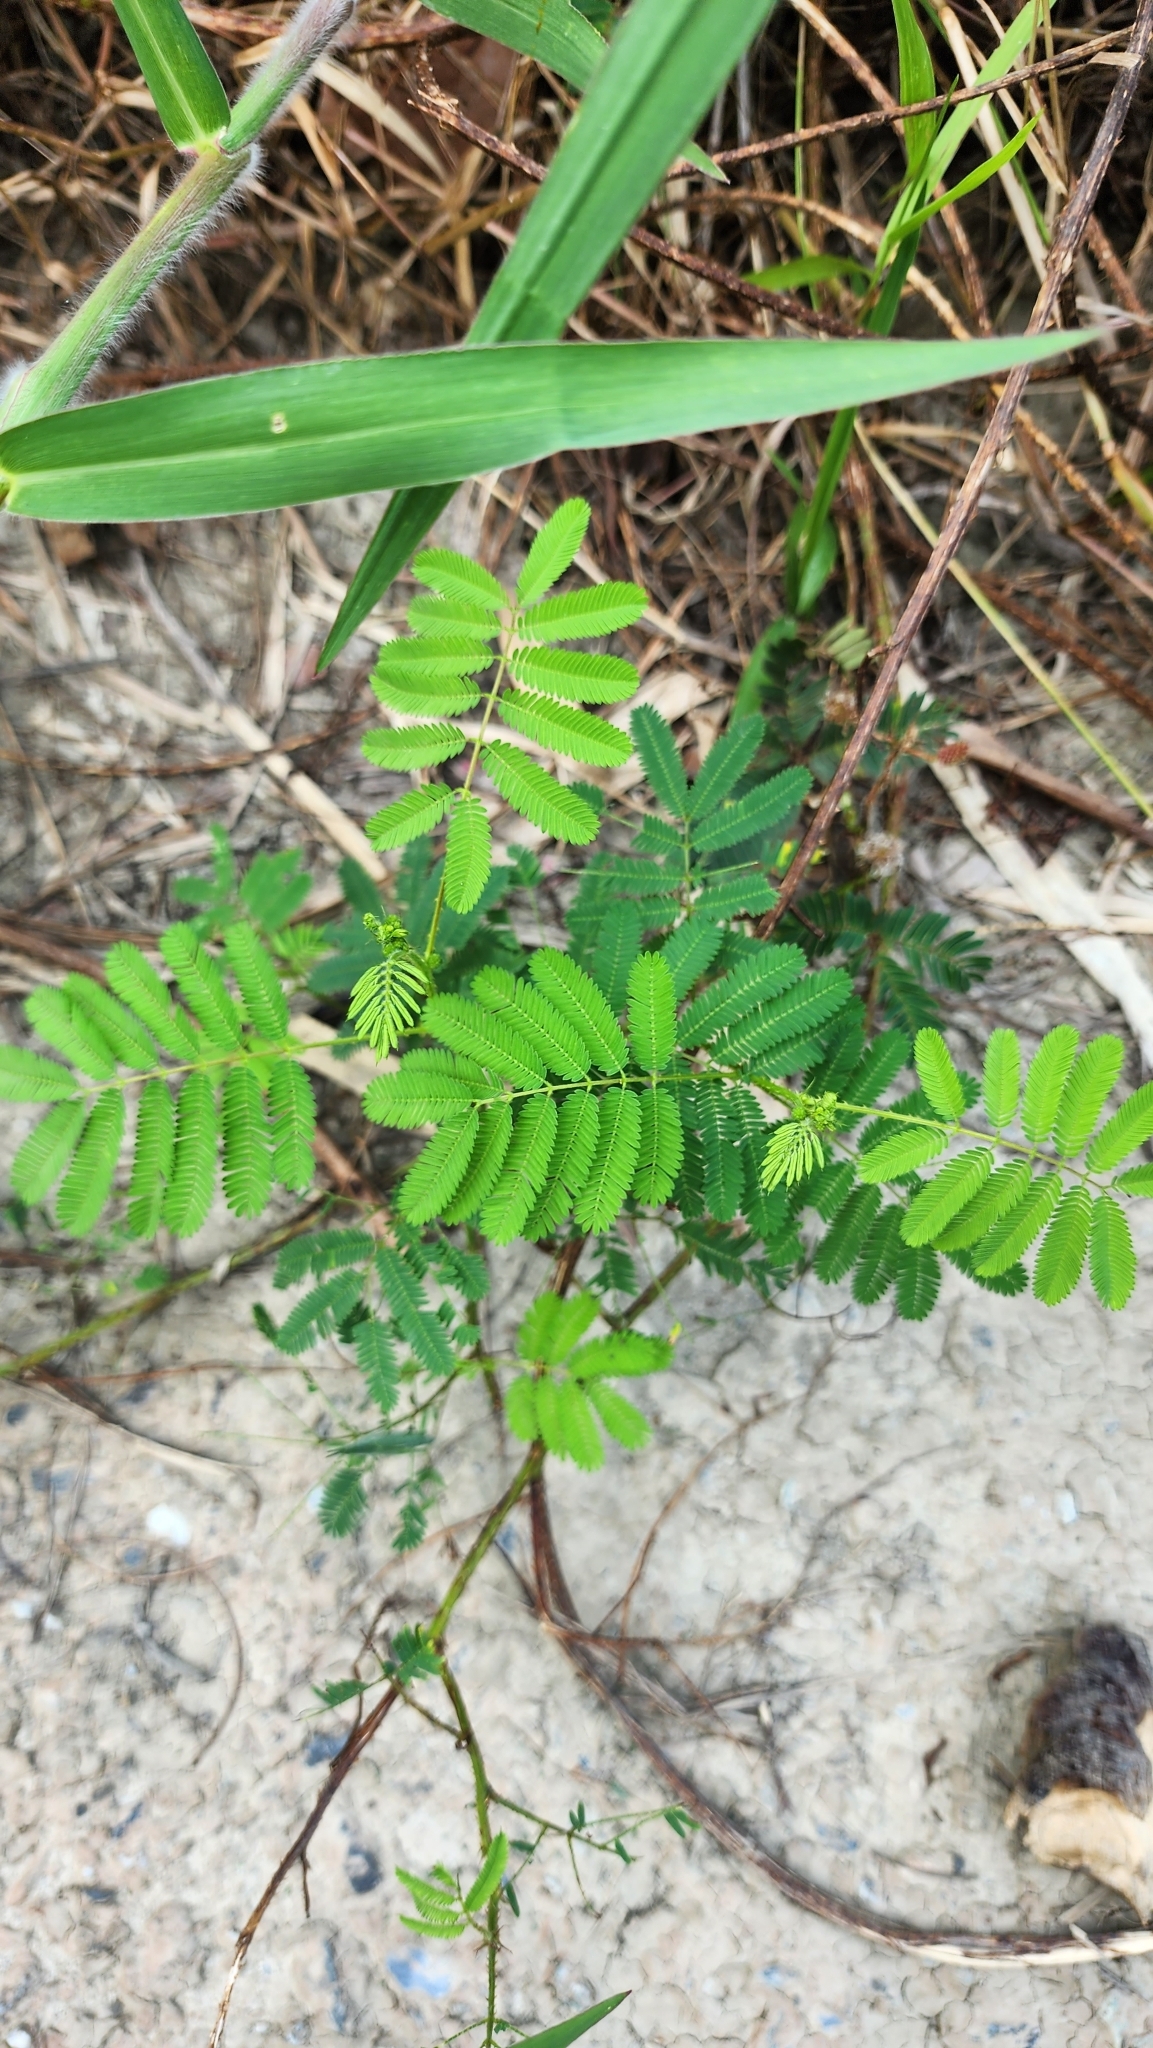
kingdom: Plantae
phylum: Tracheophyta
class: Magnoliopsida
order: Fabales
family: Fabaceae
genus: Mimosa
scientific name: Mimosa diplotricha
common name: Giant sensitive-plant
